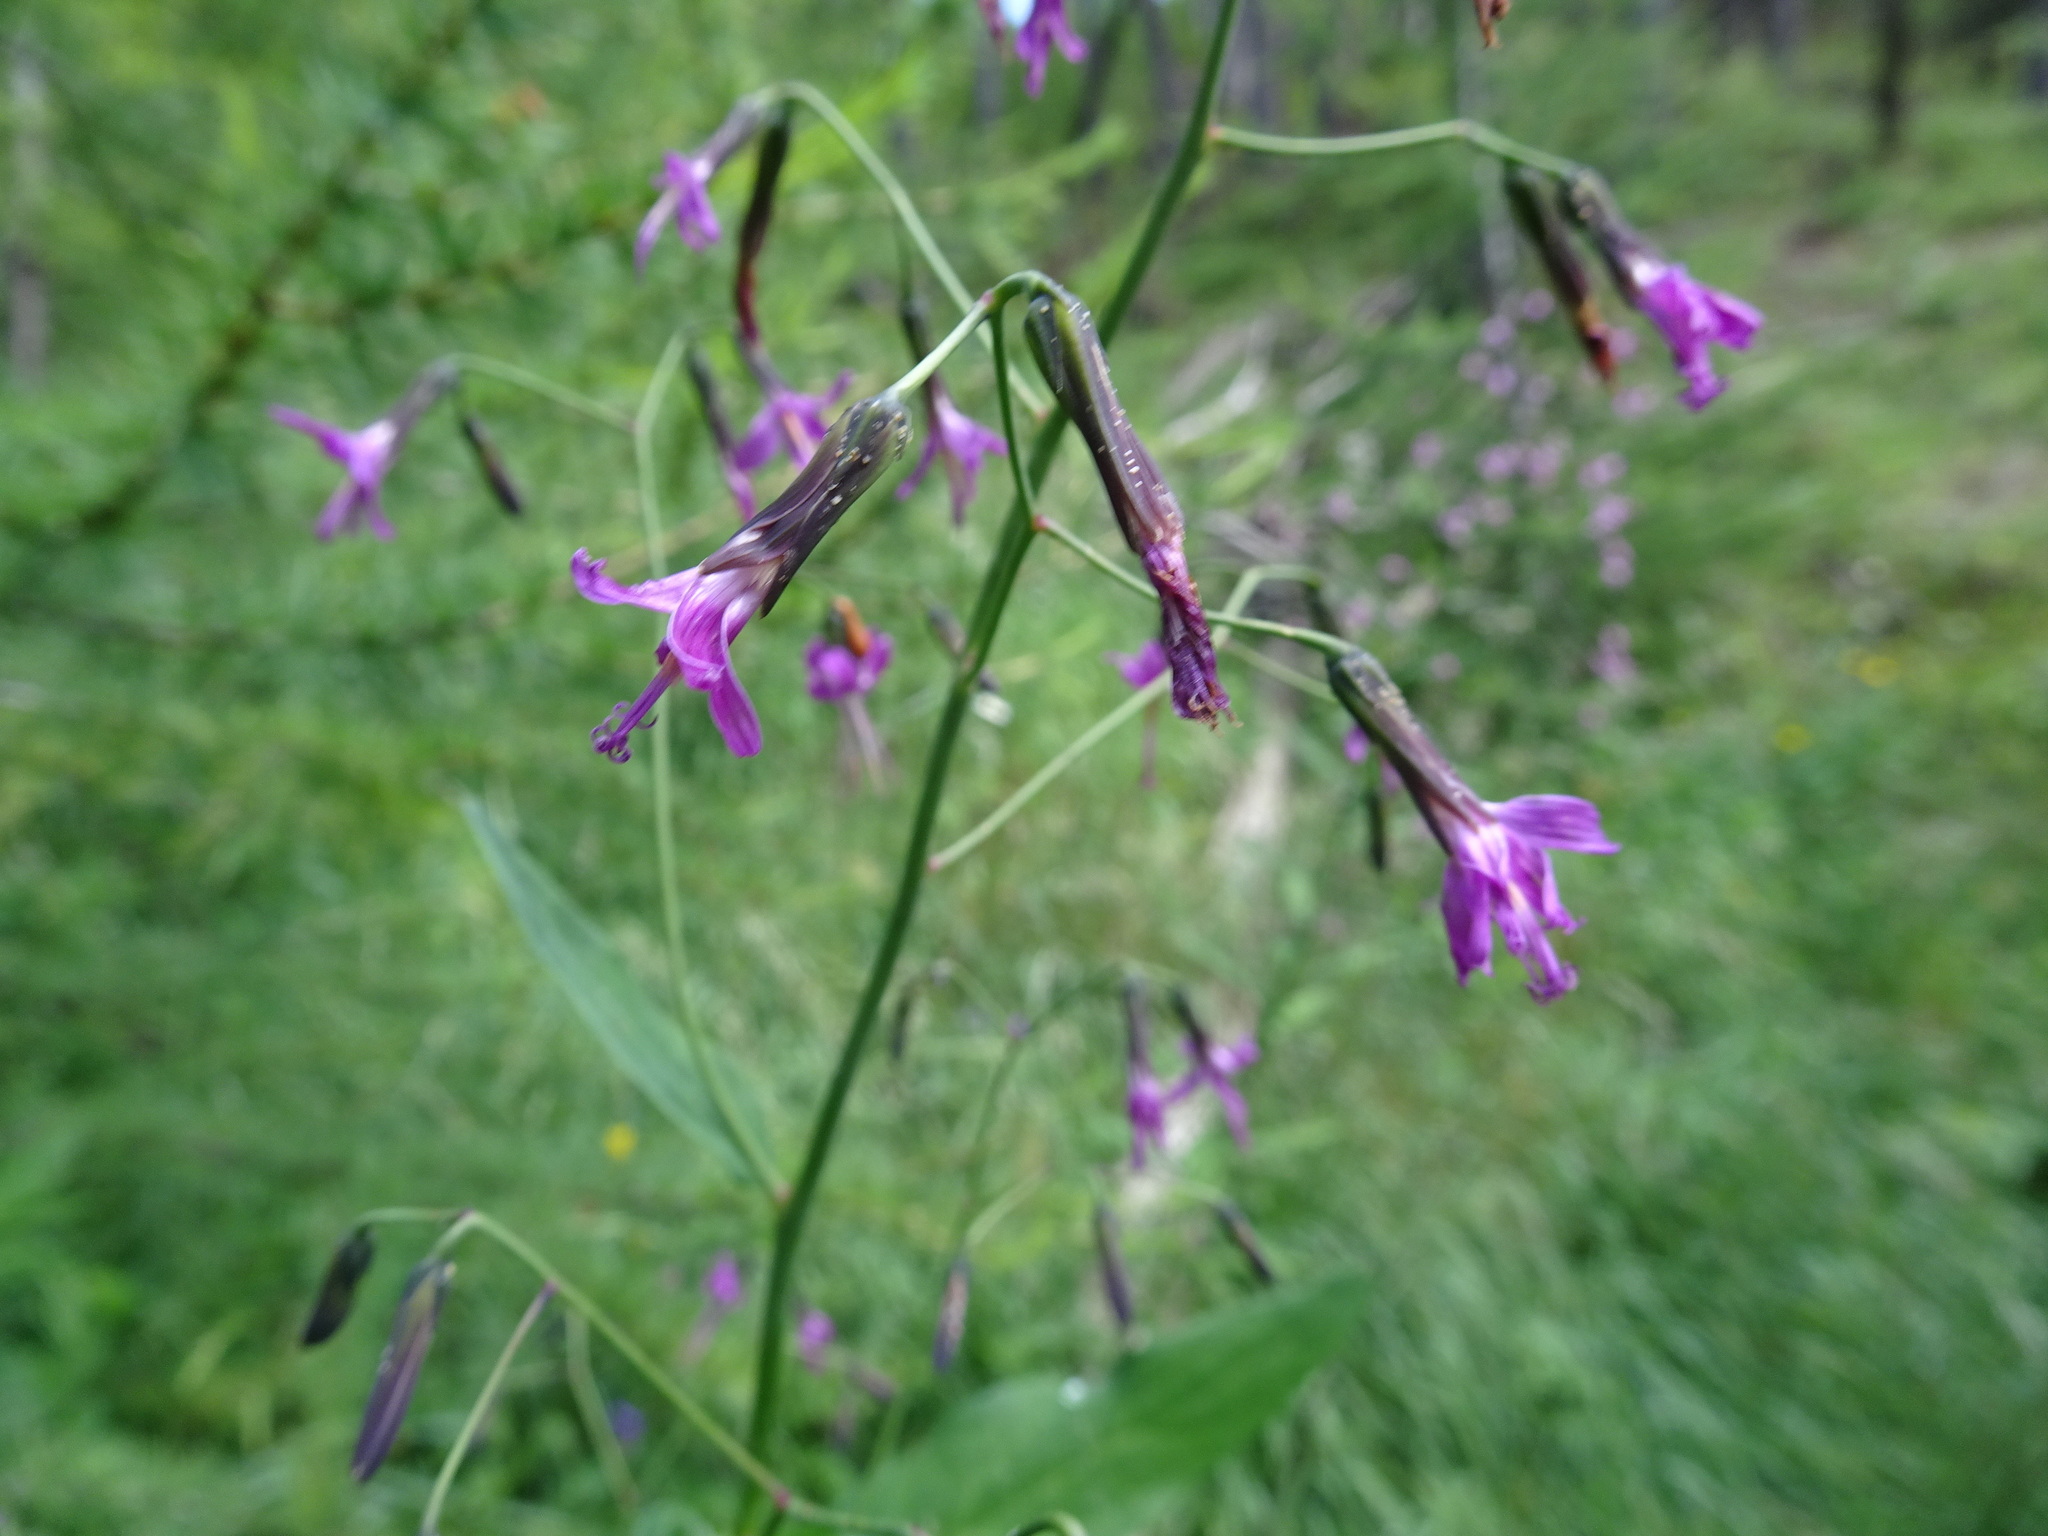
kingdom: Plantae
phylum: Tracheophyta
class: Magnoliopsida
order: Asterales
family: Asteraceae
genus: Prenanthes
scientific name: Prenanthes purpurea
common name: Purple lettuce
